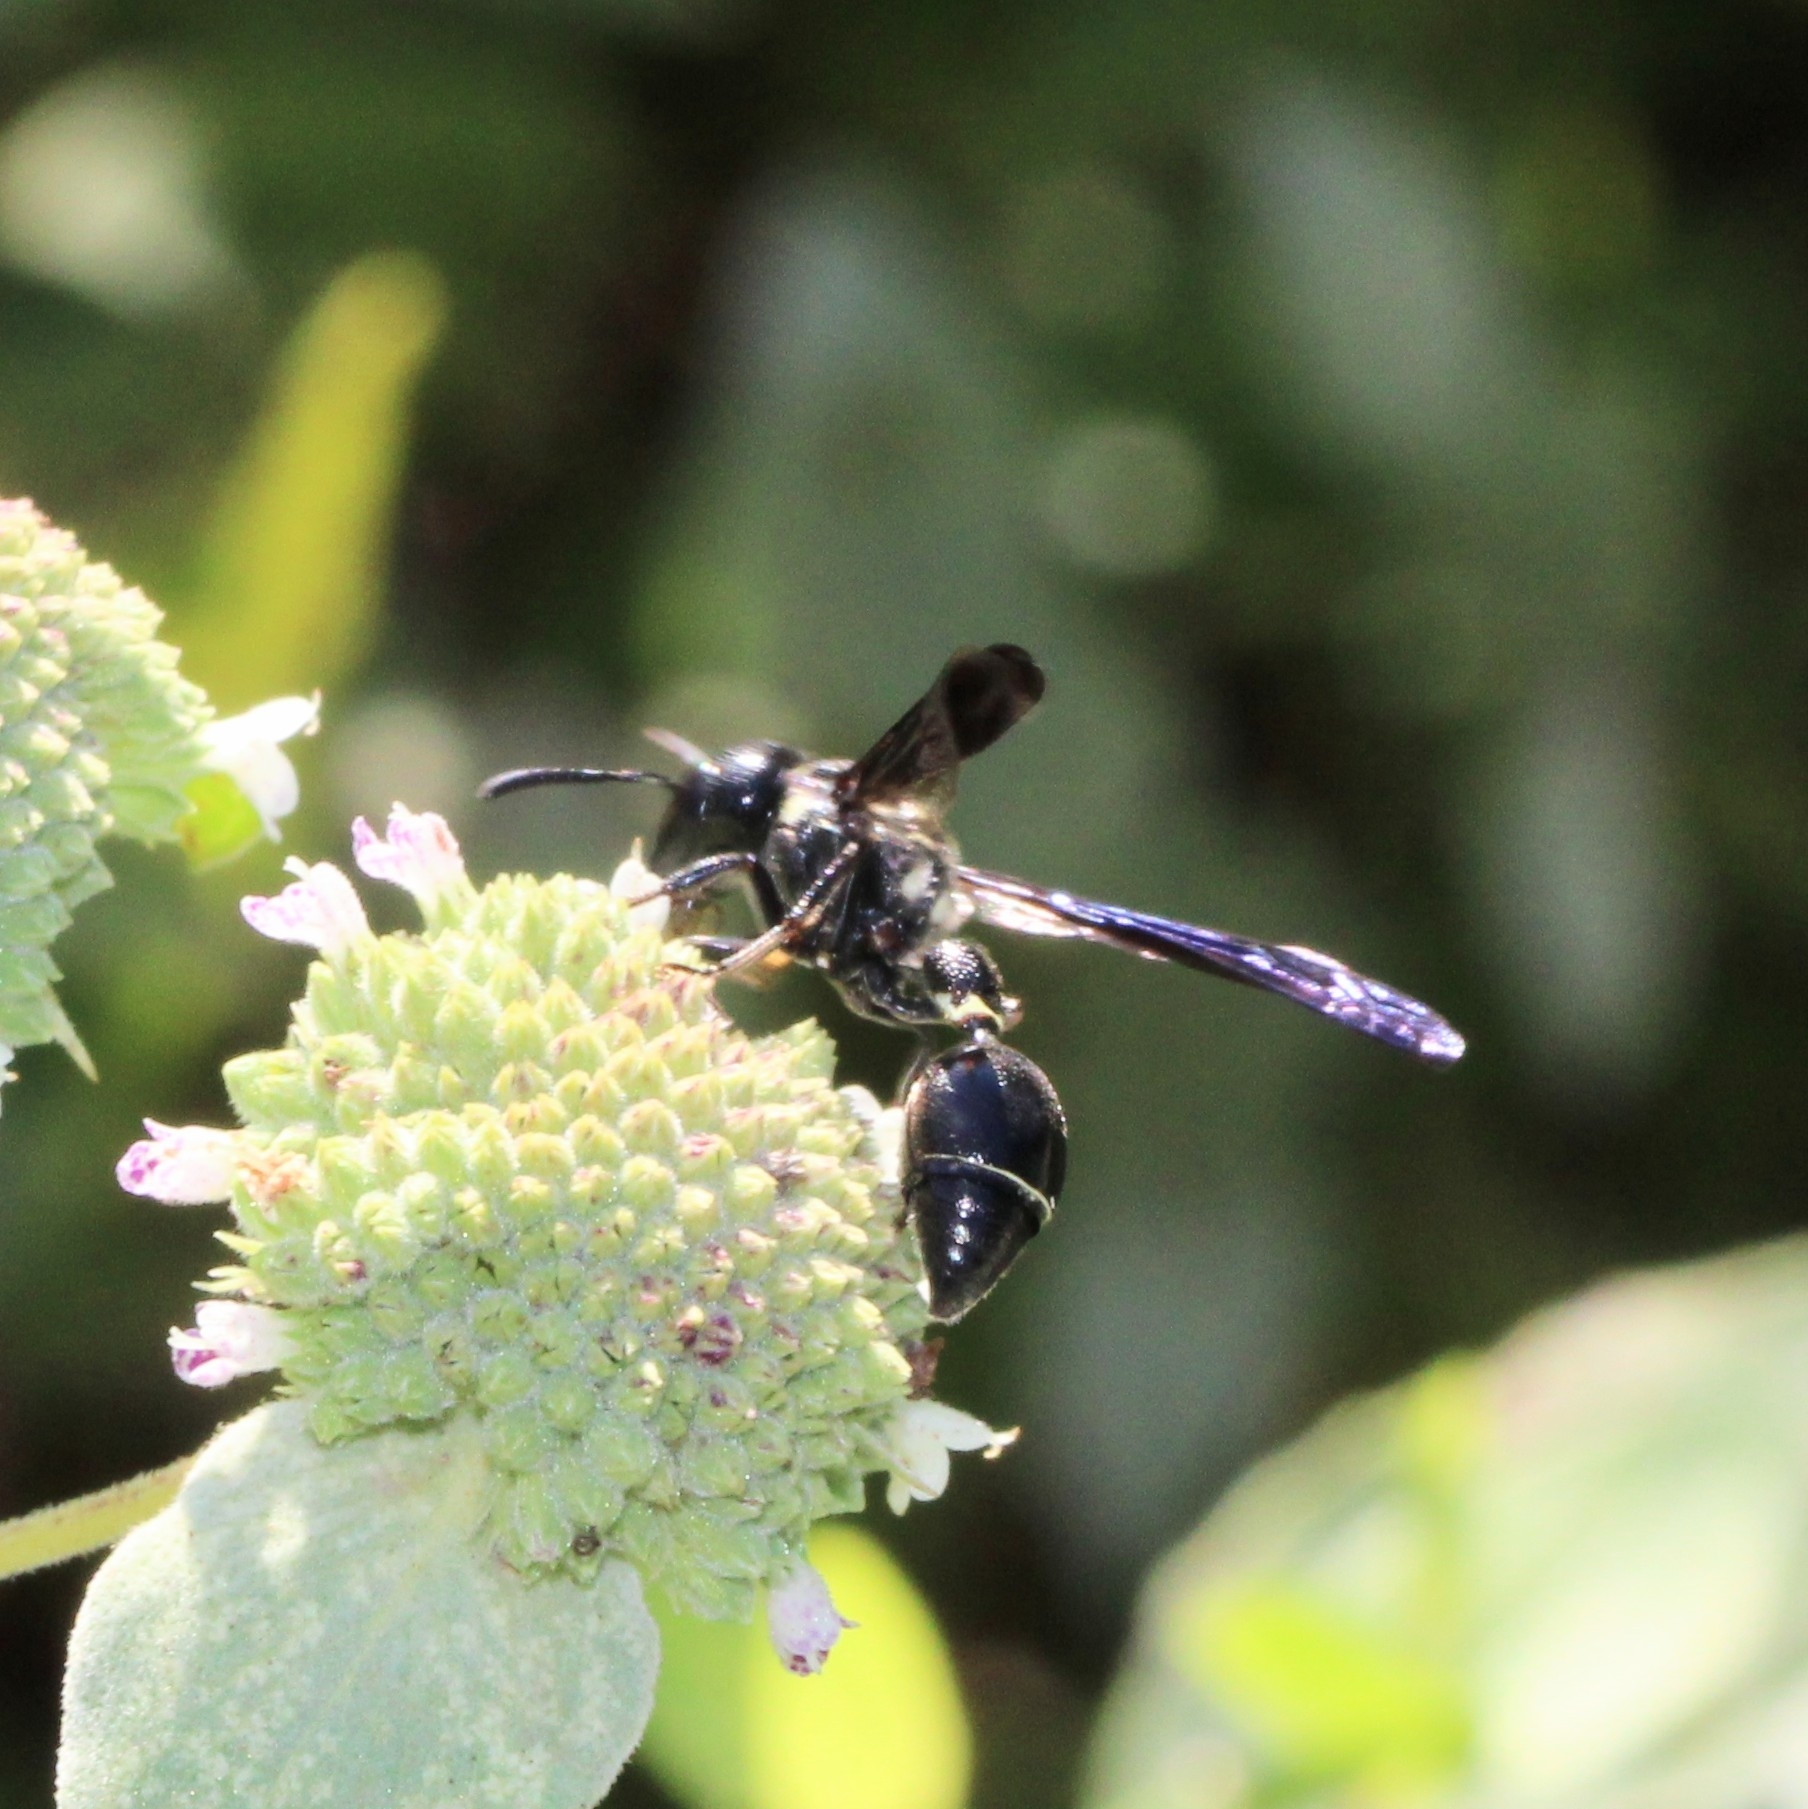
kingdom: Animalia
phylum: Arthropoda
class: Insecta
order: Hymenoptera
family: Eumenidae
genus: Zethus
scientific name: Zethus spinipes
